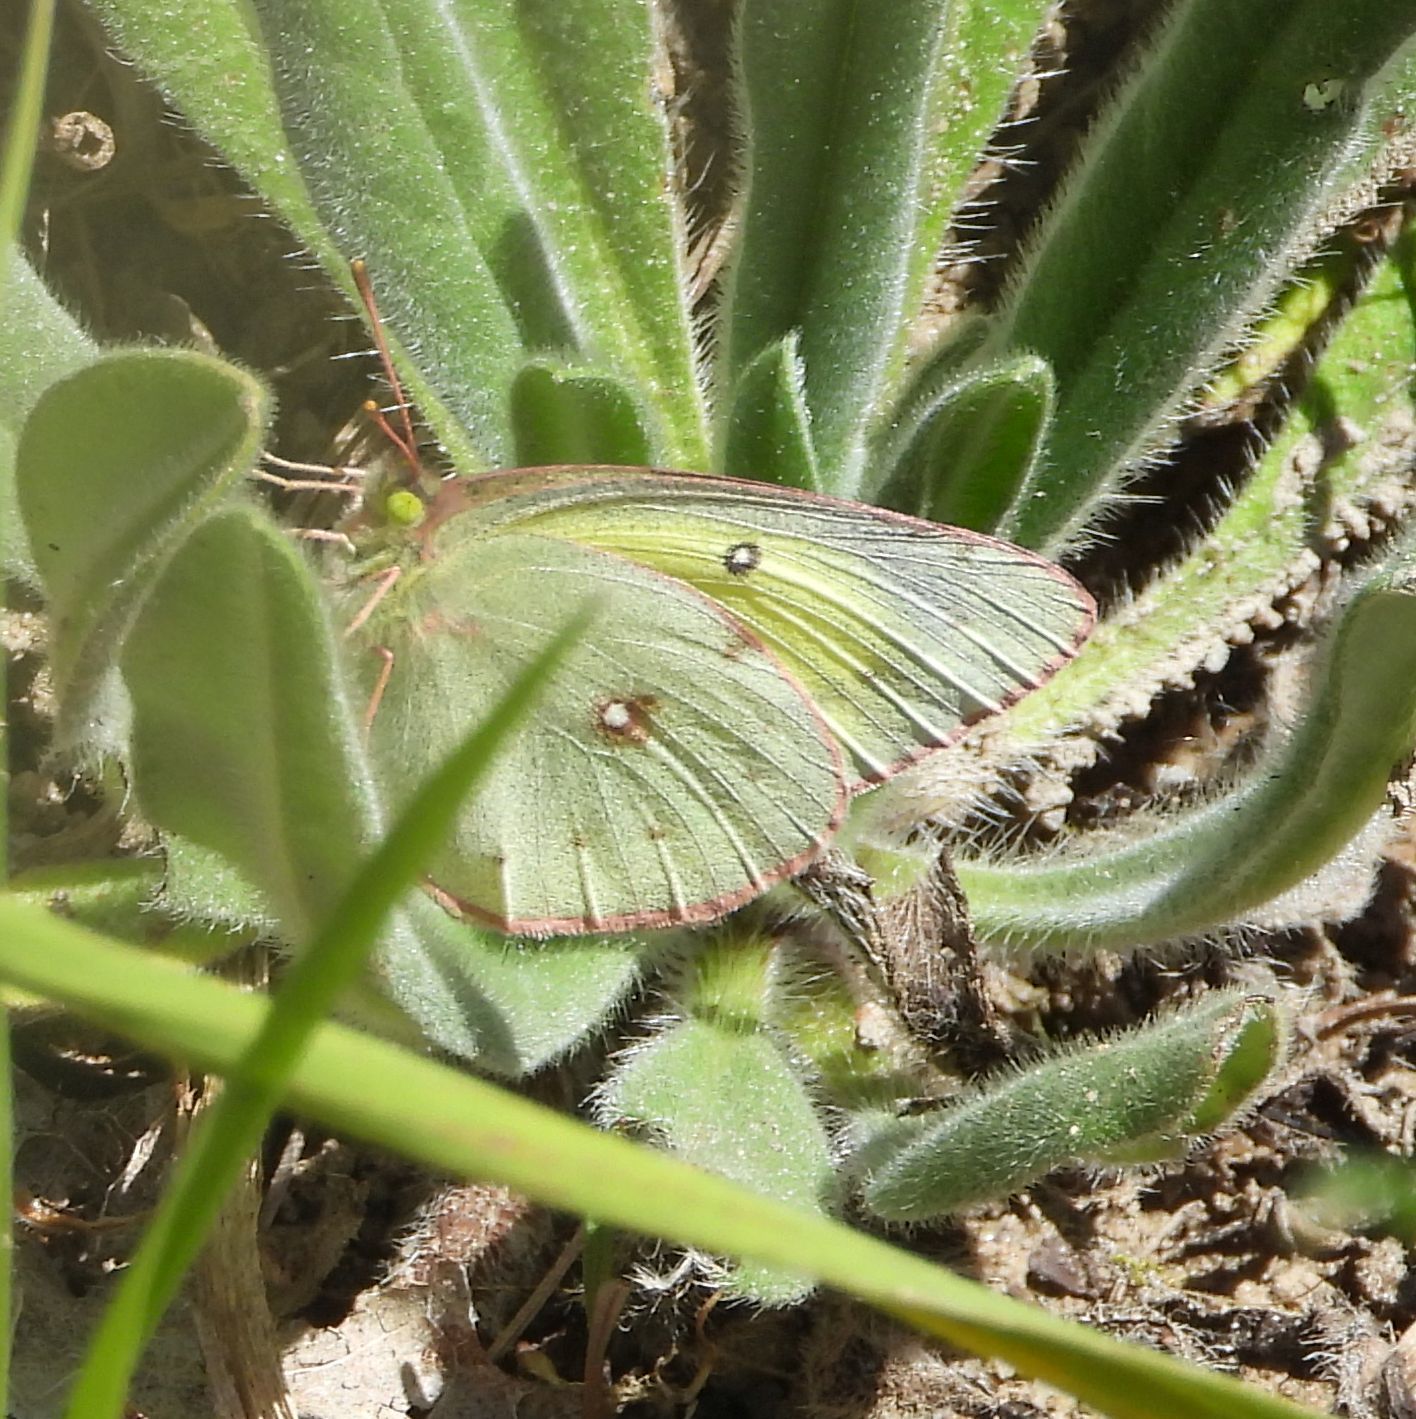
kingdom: Animalia
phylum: Arthropoda
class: Insecta
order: Lepidoptera
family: Pieridae
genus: Colias
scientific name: Colias philodice
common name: Clouded sulphur
